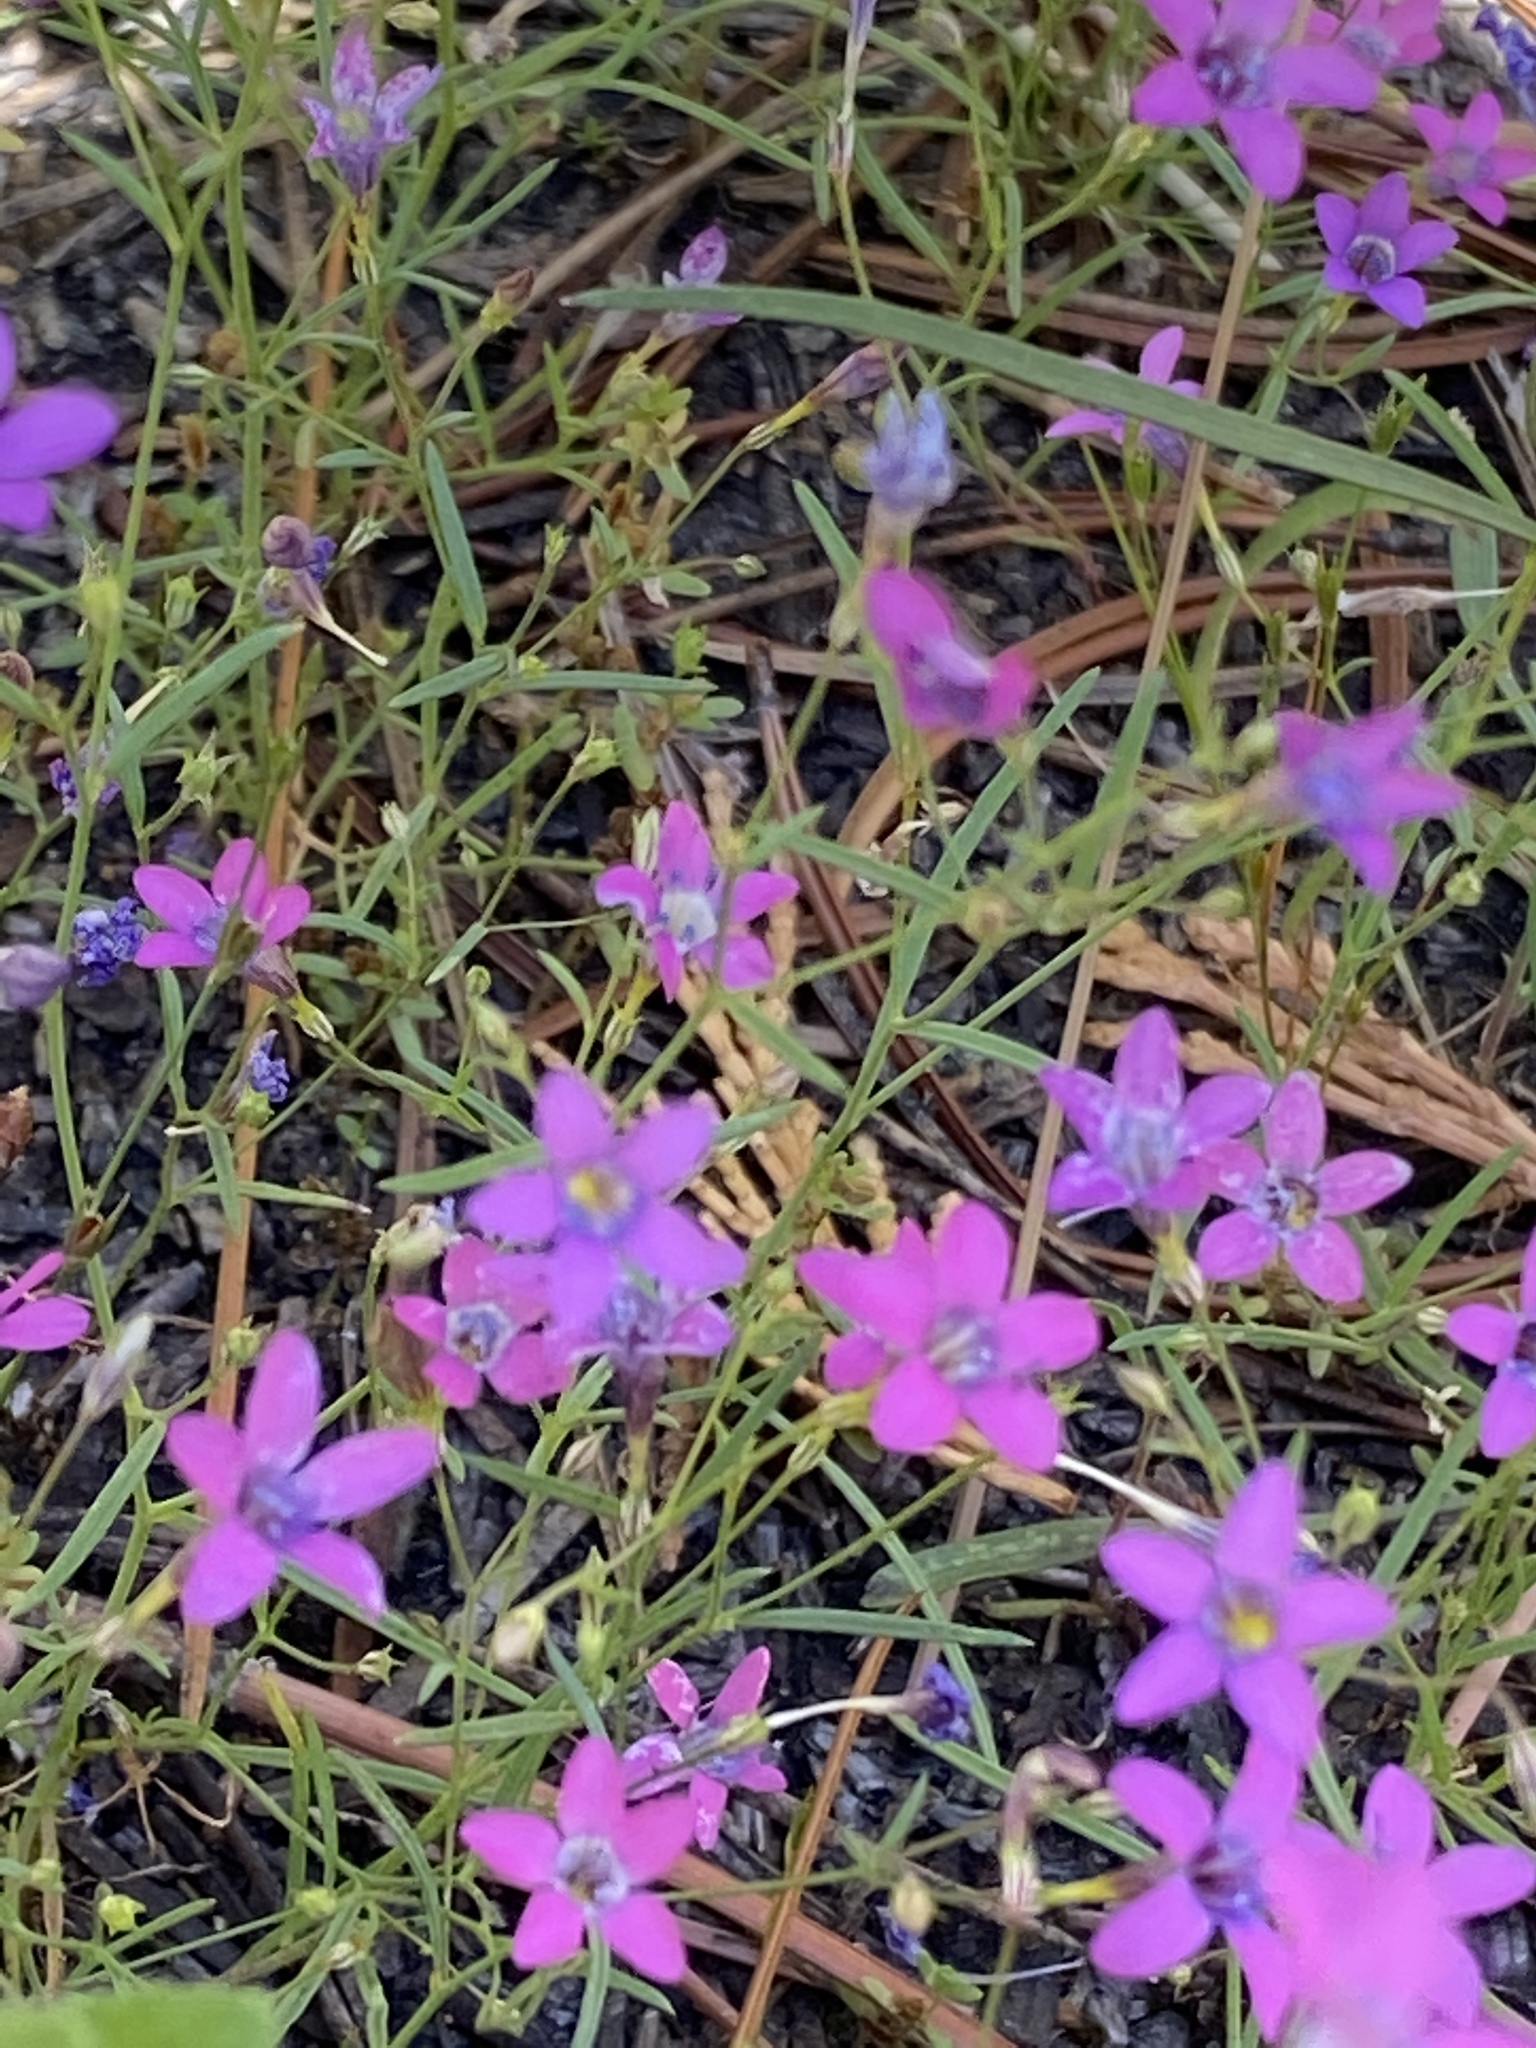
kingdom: Plantae
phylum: Tracheophyta
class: Magnoliopsida
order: Ericales
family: Polemoniaceae
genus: Navarretia
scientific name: Navarretia leptalea
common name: Bridges' pincushionplant
